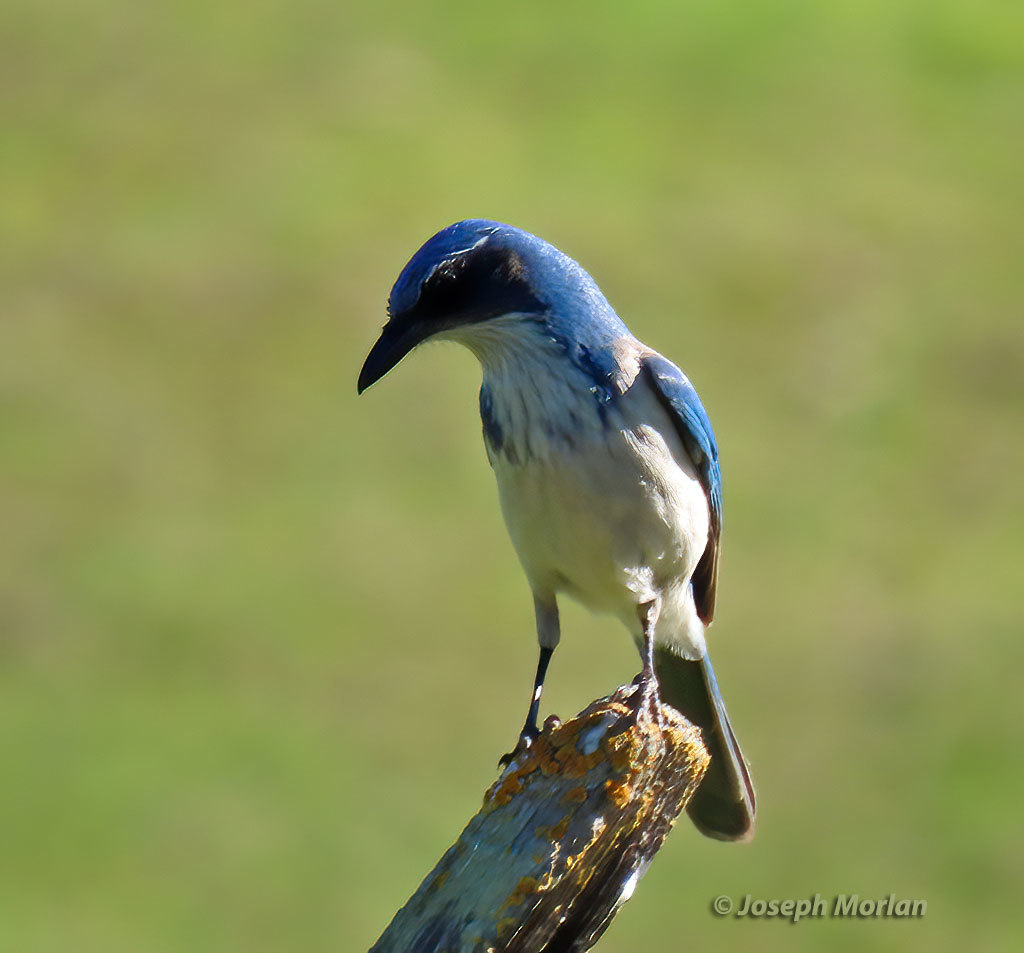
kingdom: Animalia
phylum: Chordata
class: Aves
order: Passeriformes
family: Corvidae
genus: Aphelocoma
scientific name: Aphelocoma californica
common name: California scrub-jay
